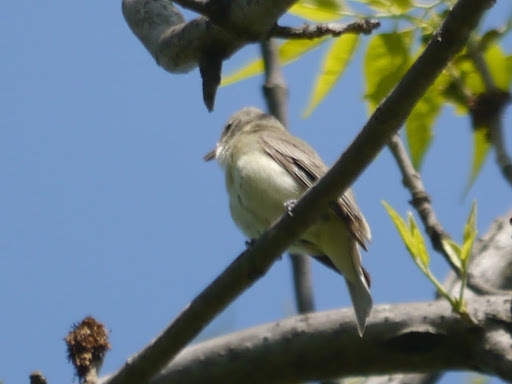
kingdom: Animalia
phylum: Chordata
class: Aves
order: Passeriformes
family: Vireonidae
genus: Vireo
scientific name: Vireo gilvus
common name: Warbling vireo
